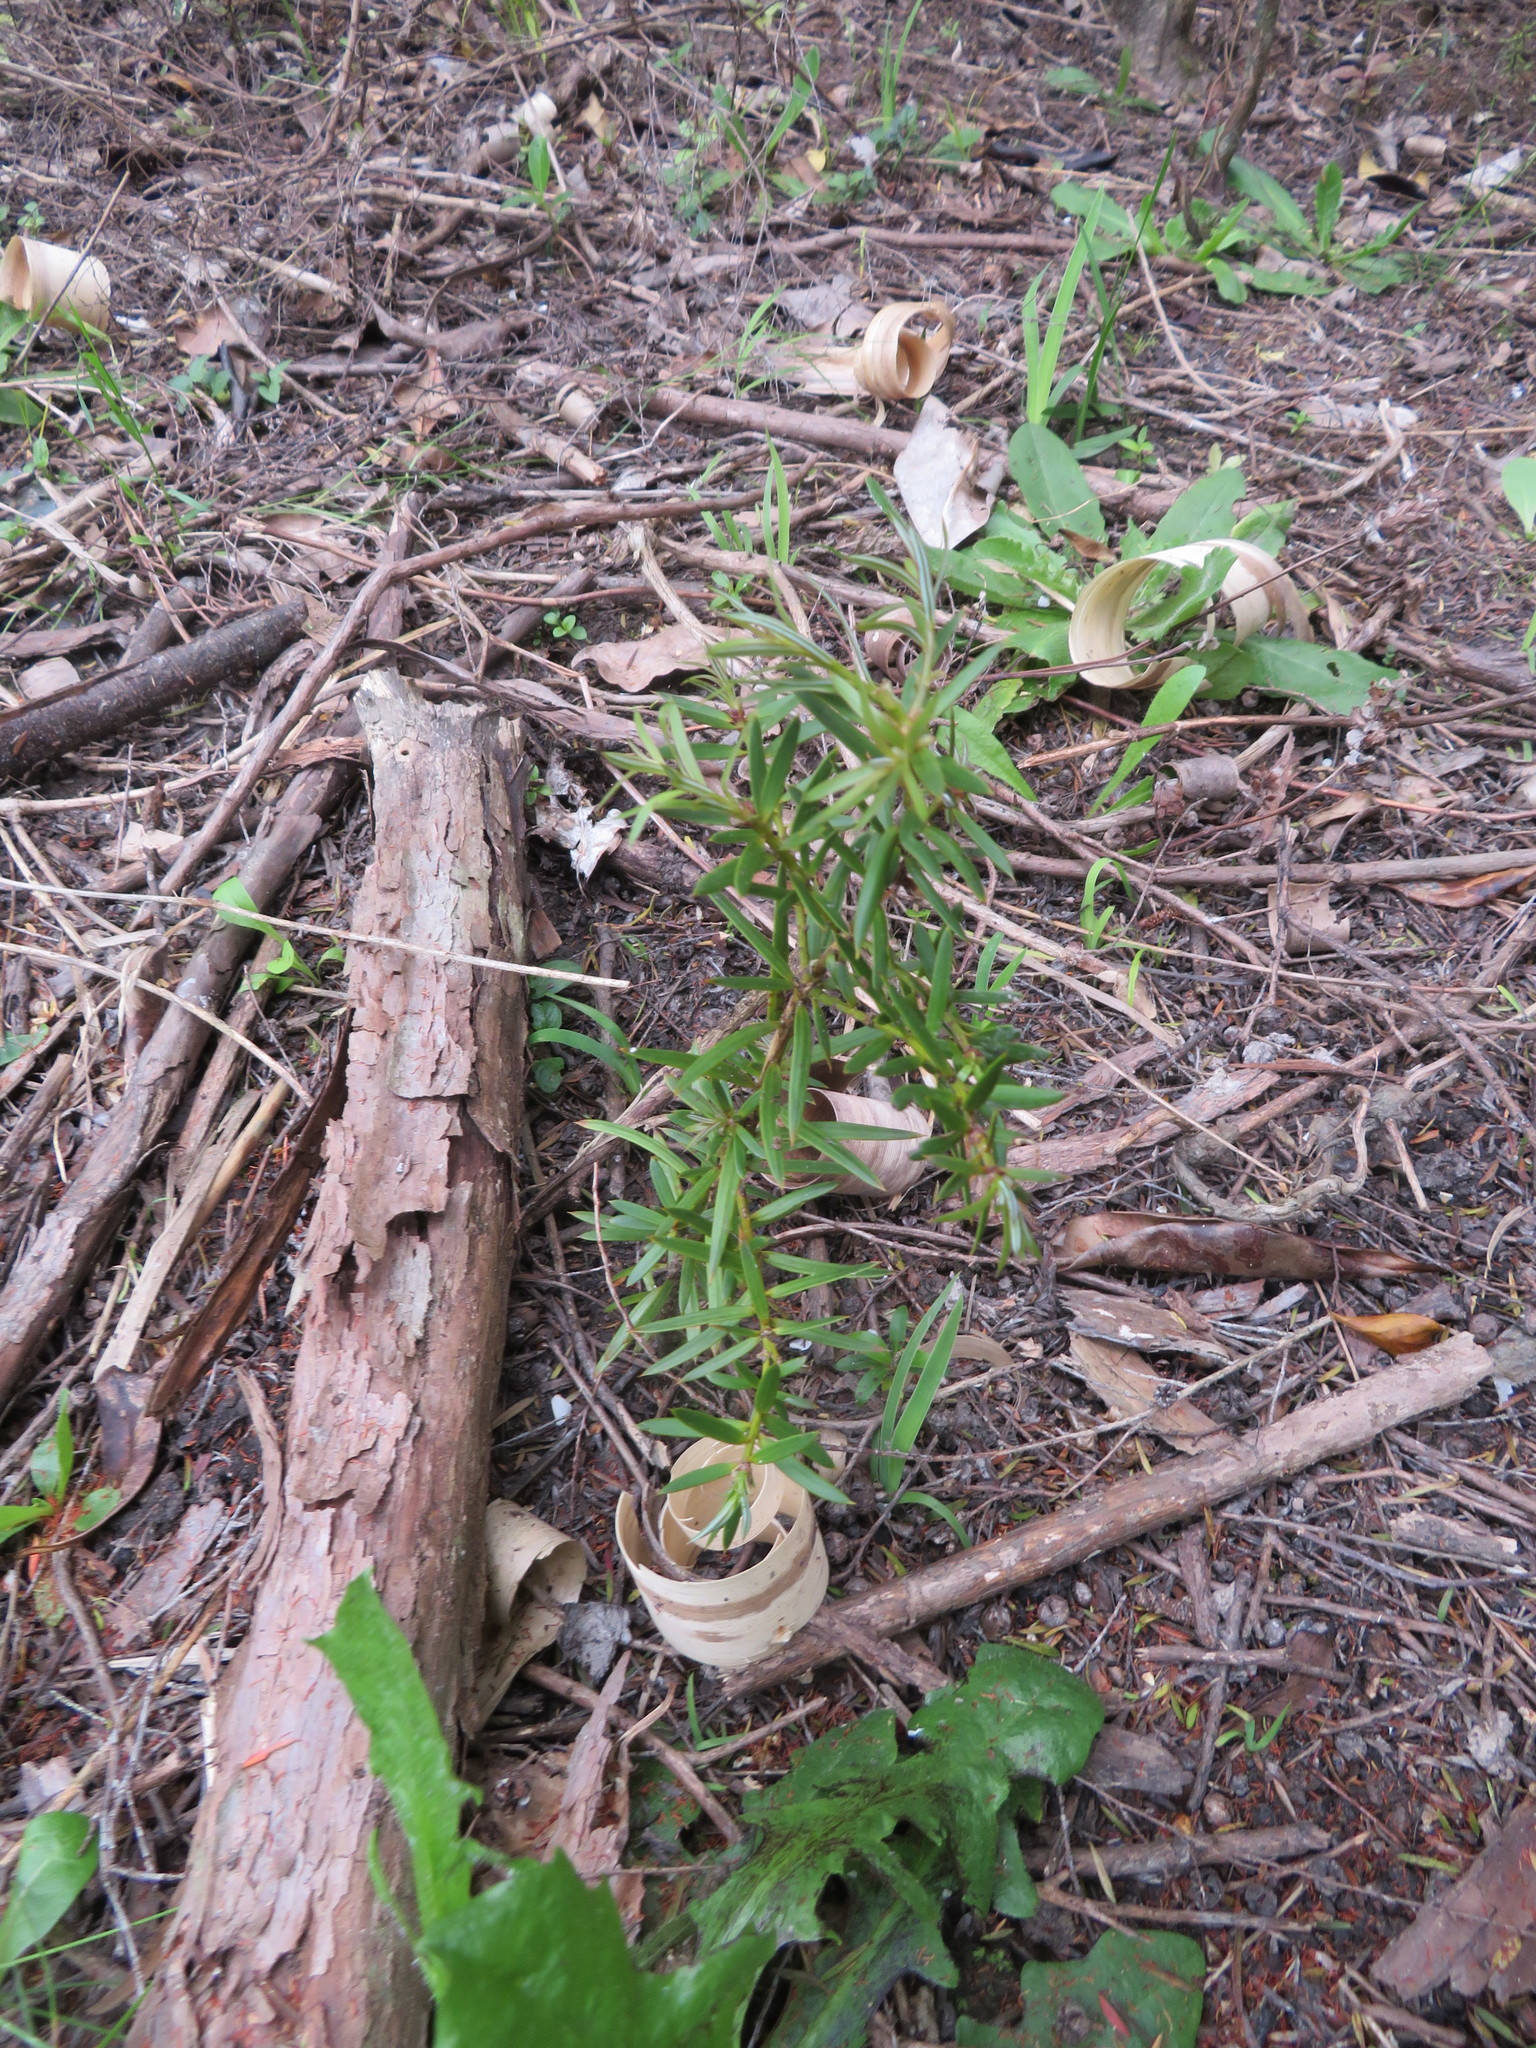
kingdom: Plantae
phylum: Tracheophyta
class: Pinopsida
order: Pinales
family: Podocarpaceae
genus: Podocarpus
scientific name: Podocarpus totara
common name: Totara
